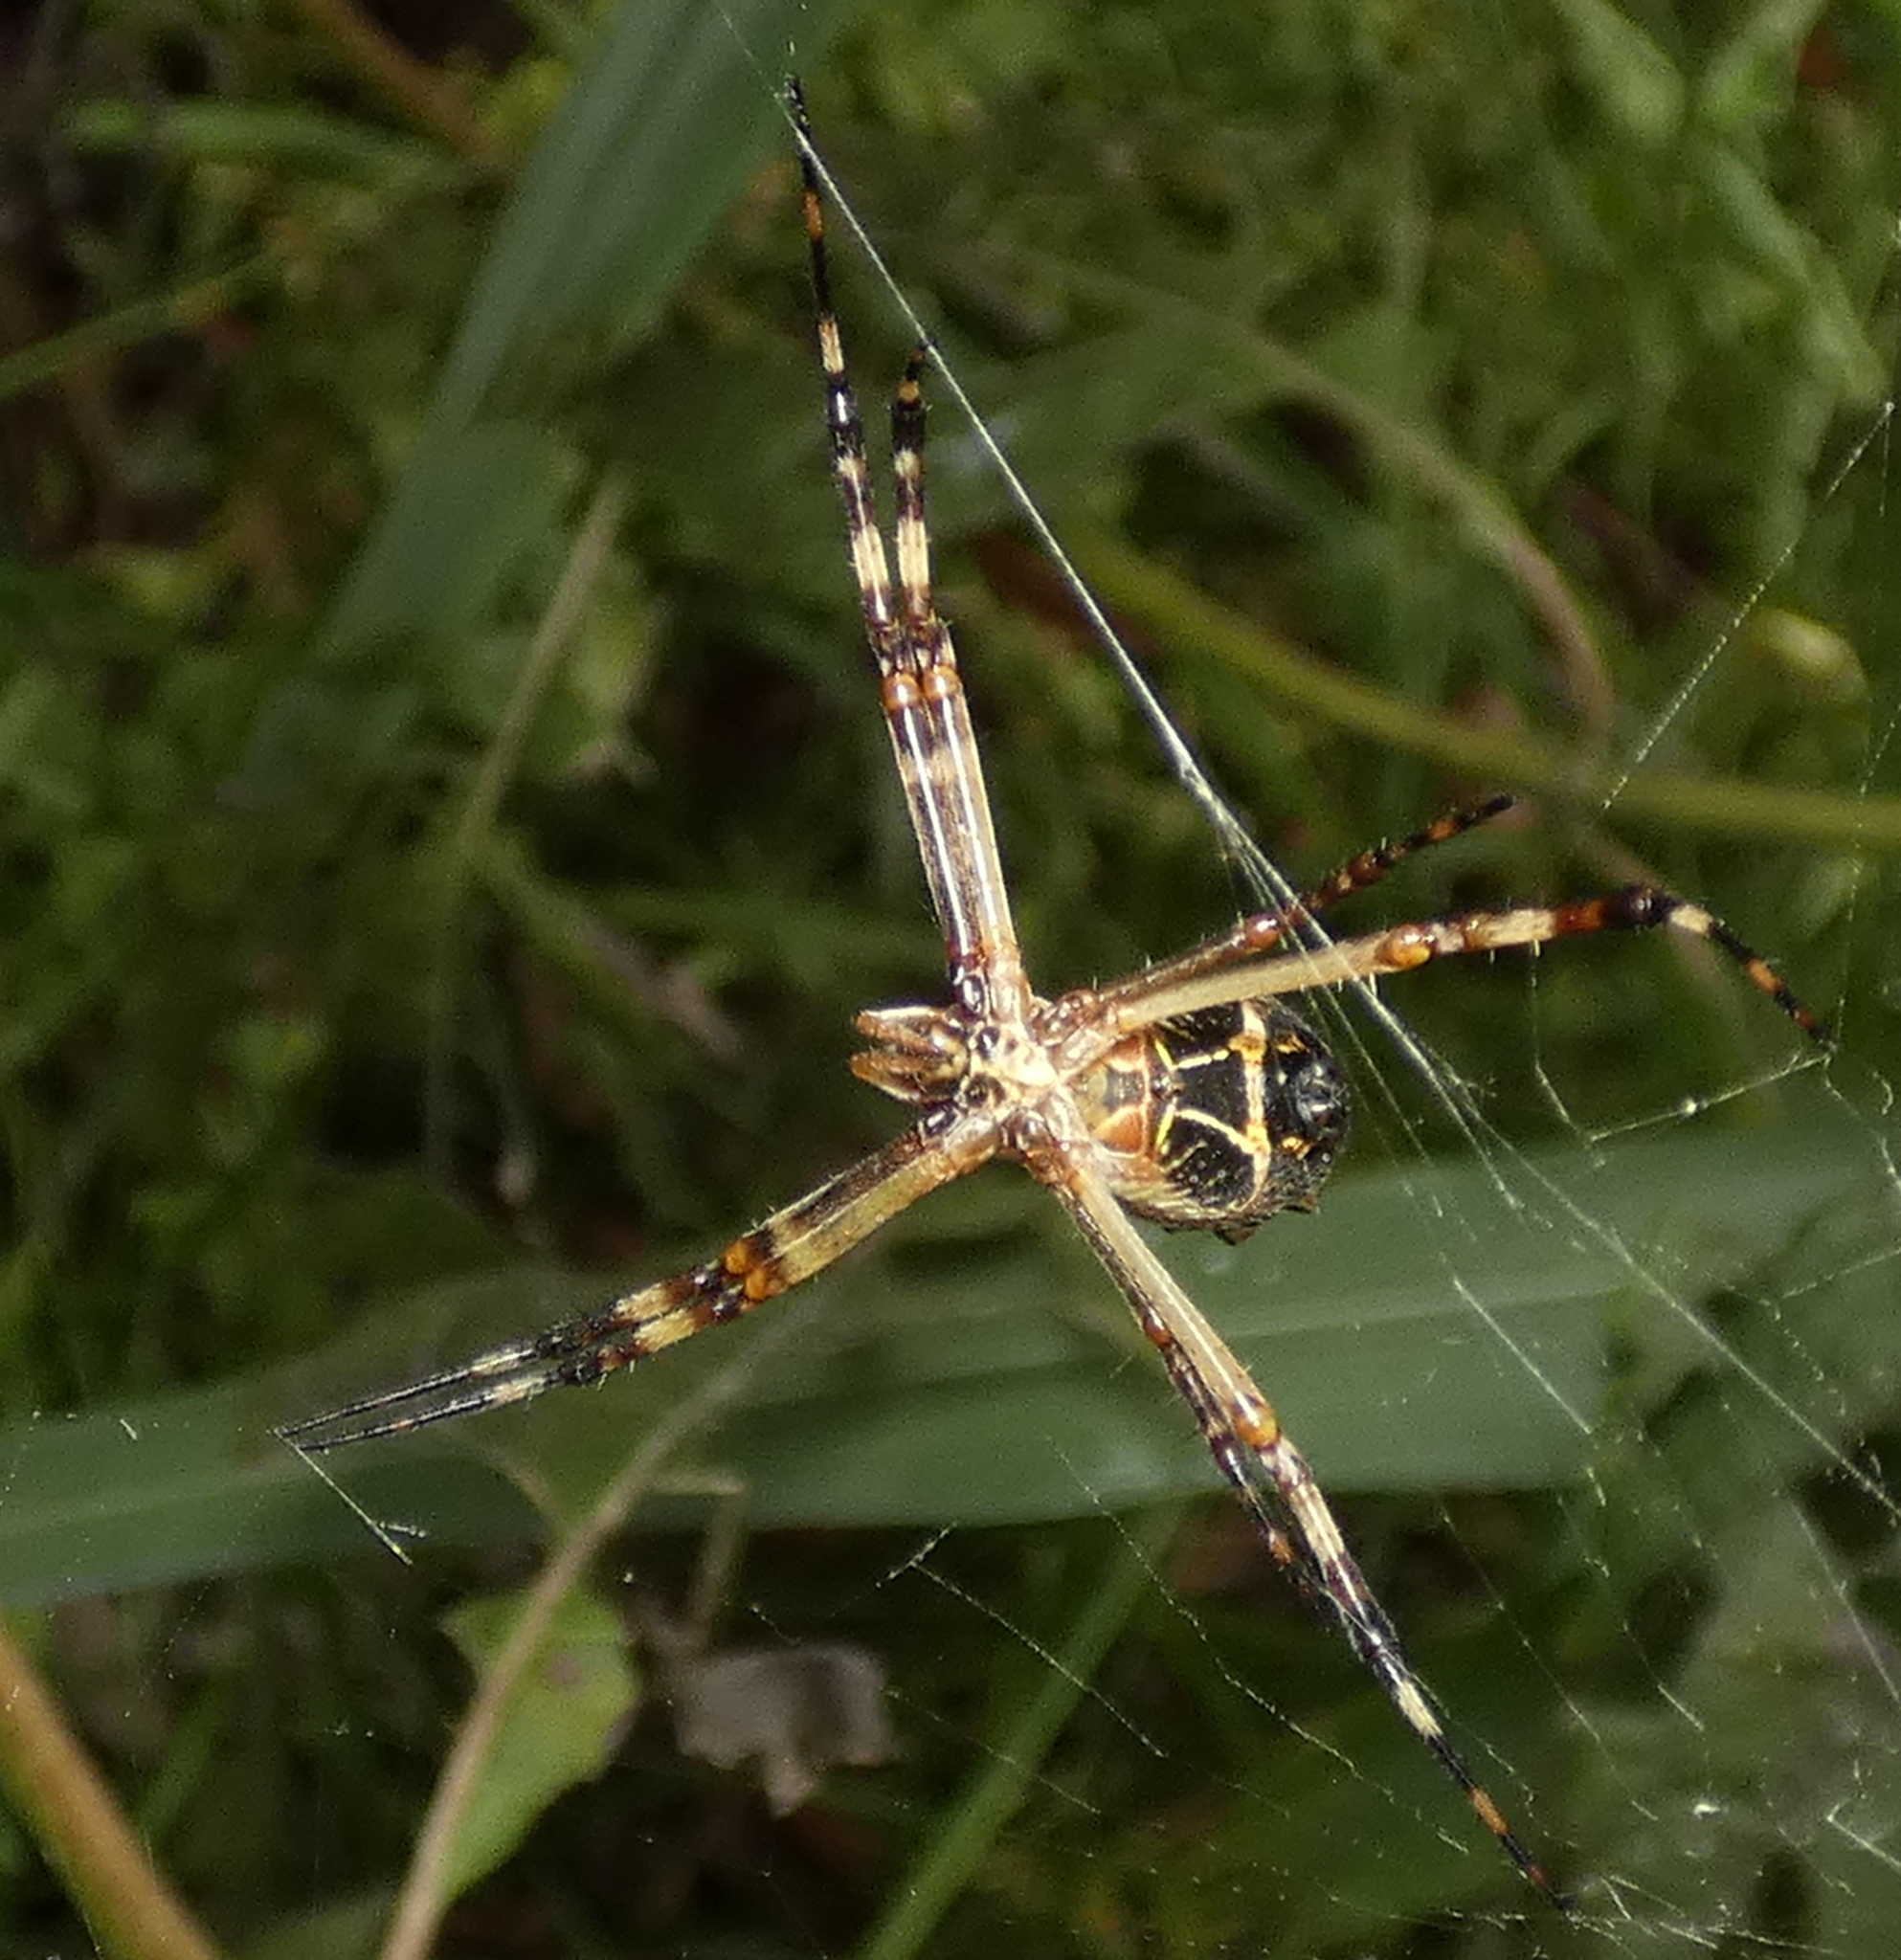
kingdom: Animalia
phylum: Arthropoda
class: Arachnida
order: Araneae
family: Araneidae
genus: Argiope
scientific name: Argiope argentata
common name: Orb weavers
